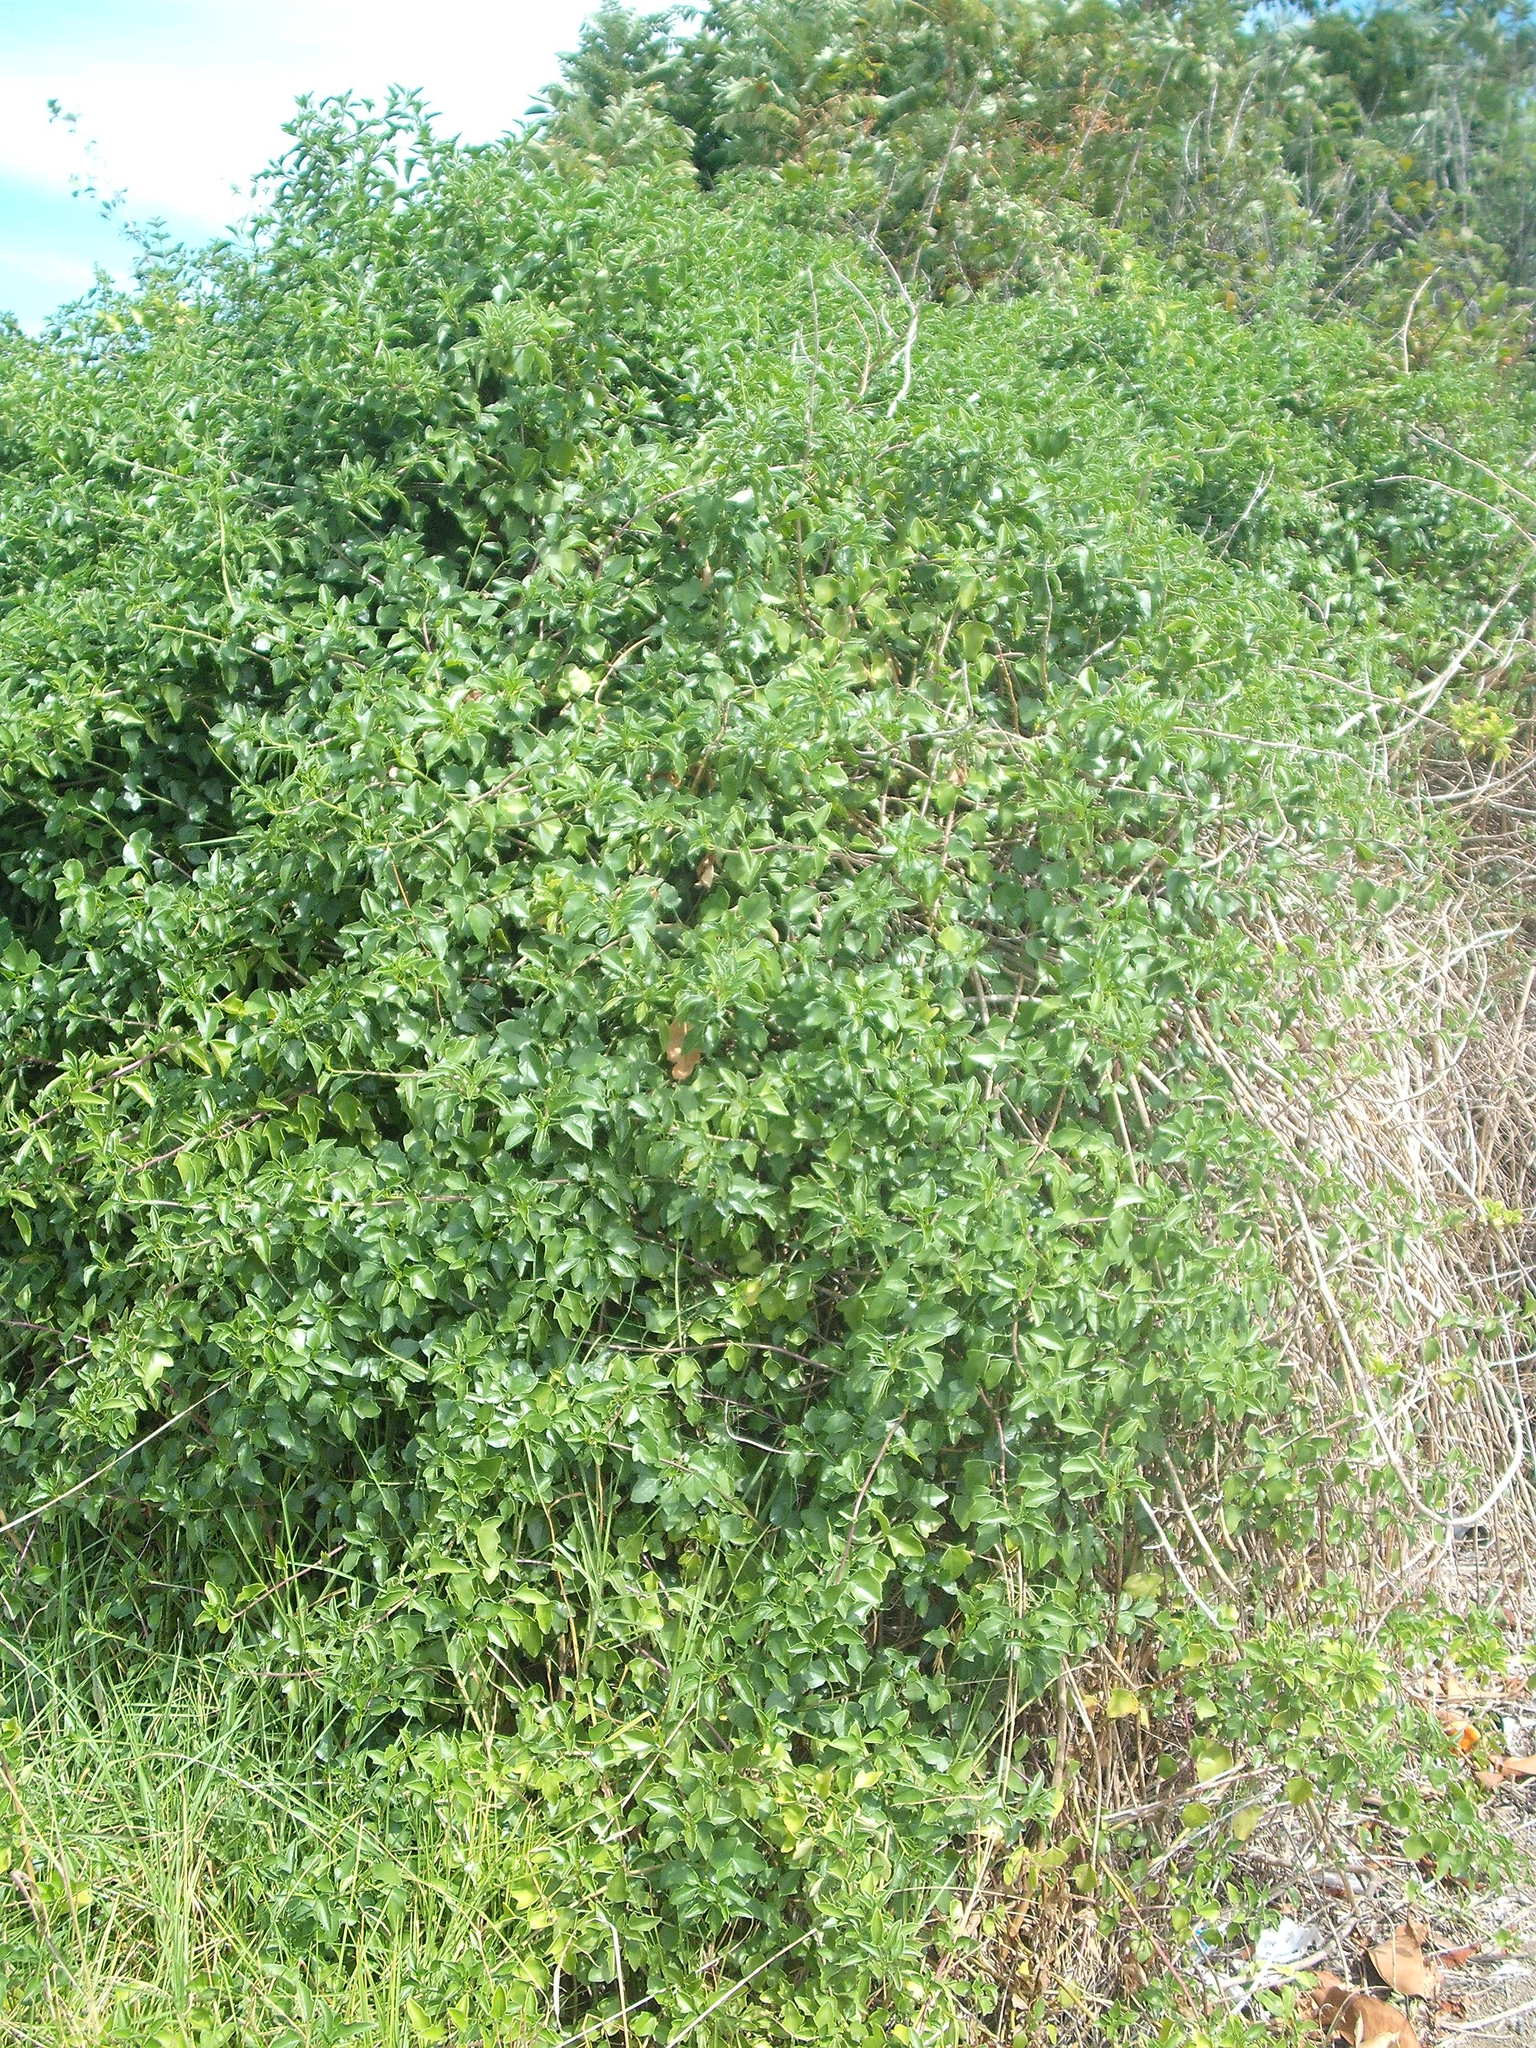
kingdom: Plantae
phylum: Tracheophyta
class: Magnoliopsida
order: Asterales
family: Asteraceae
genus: Senecio
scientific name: Senecio angulatus
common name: Climbing groundsel
